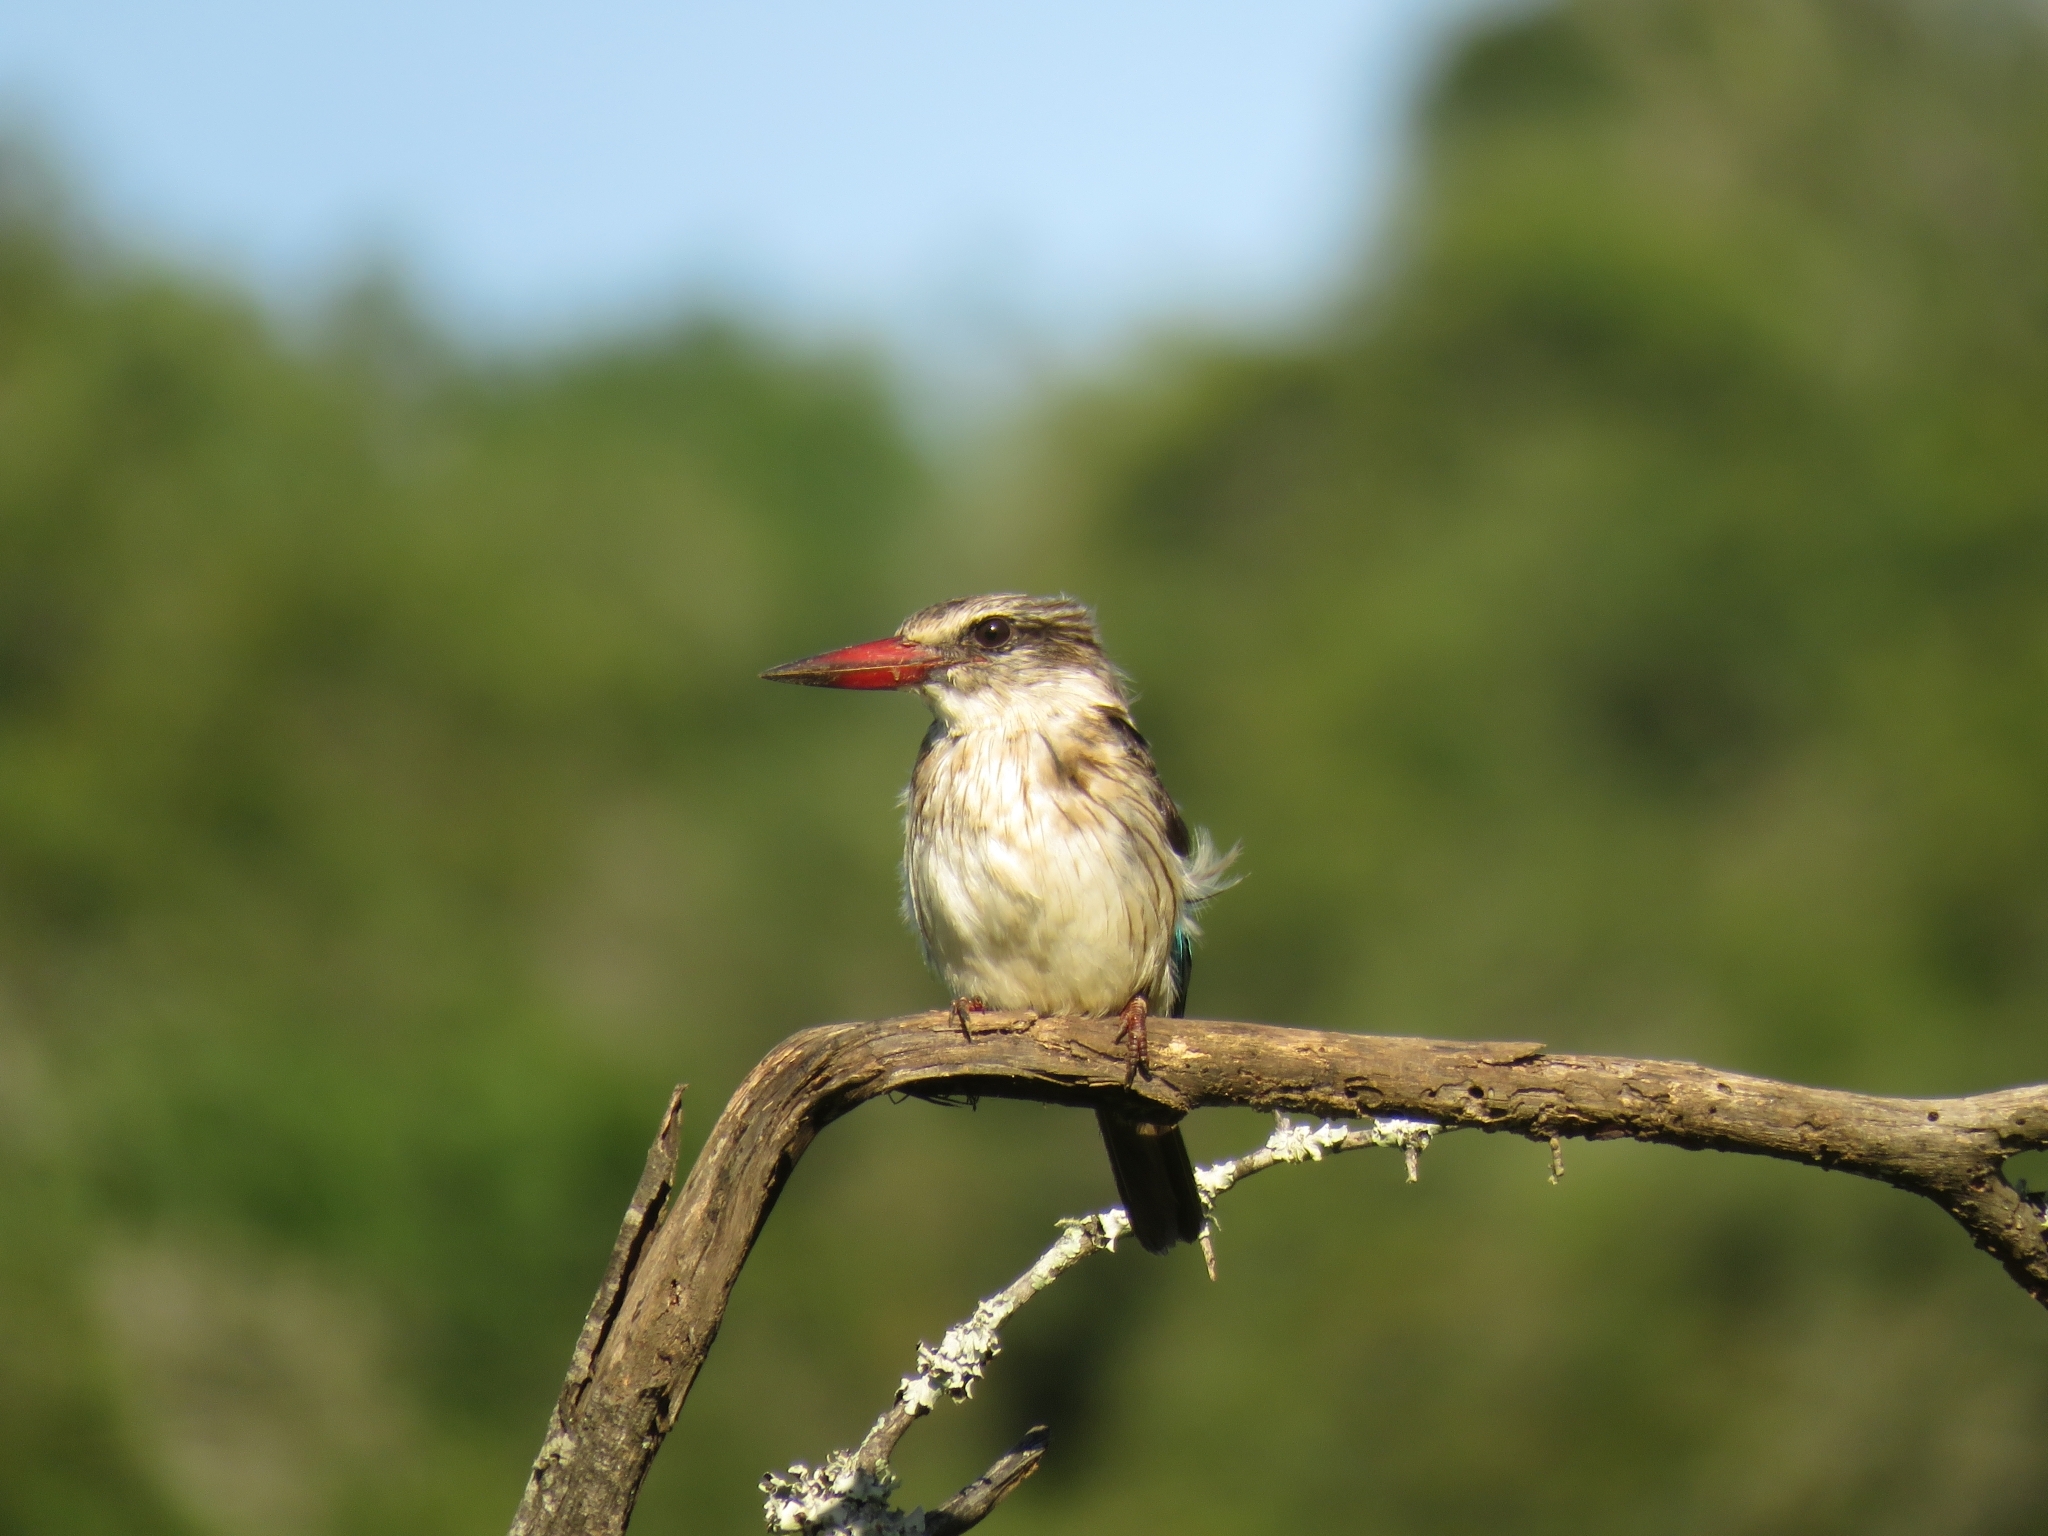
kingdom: Animalia
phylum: Chordata
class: Aves
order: Coraciiformes
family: Alcedinidae
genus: Halcyon
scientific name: Halcyon albiventris
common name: Brown-hooded kingfisher
